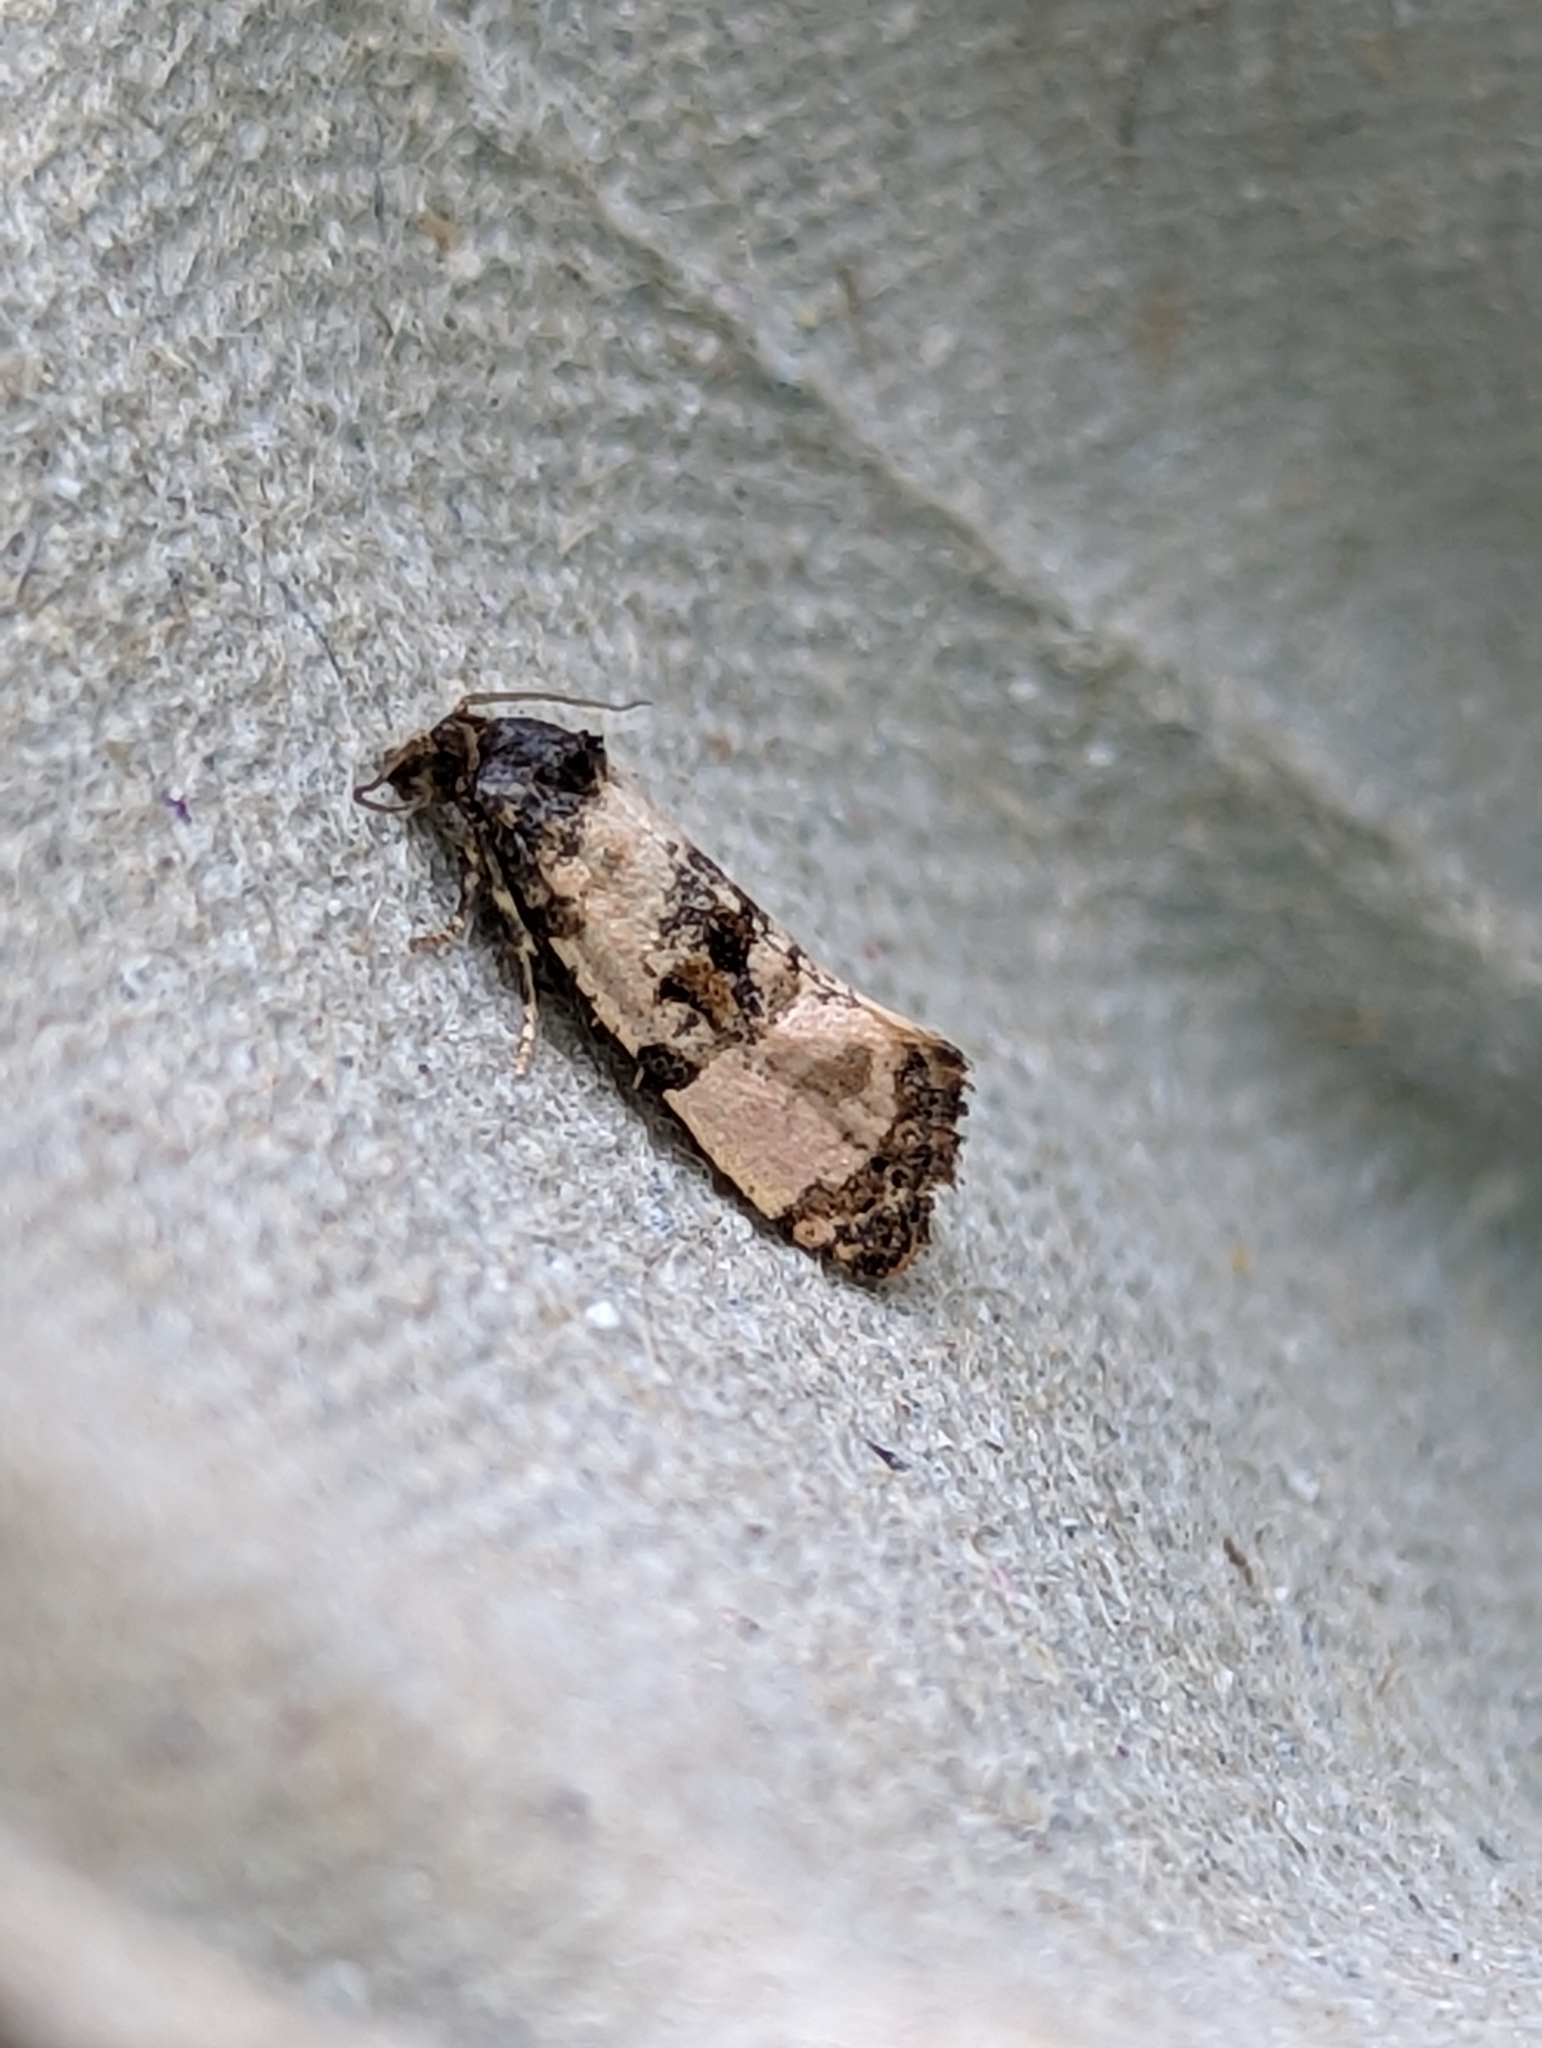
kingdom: Animalia
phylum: Arthropoda
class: Insecta
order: Lepidoptera
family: Tortricidae
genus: Cochylis
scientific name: Cochylis atricapitana
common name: Tortricid moth
